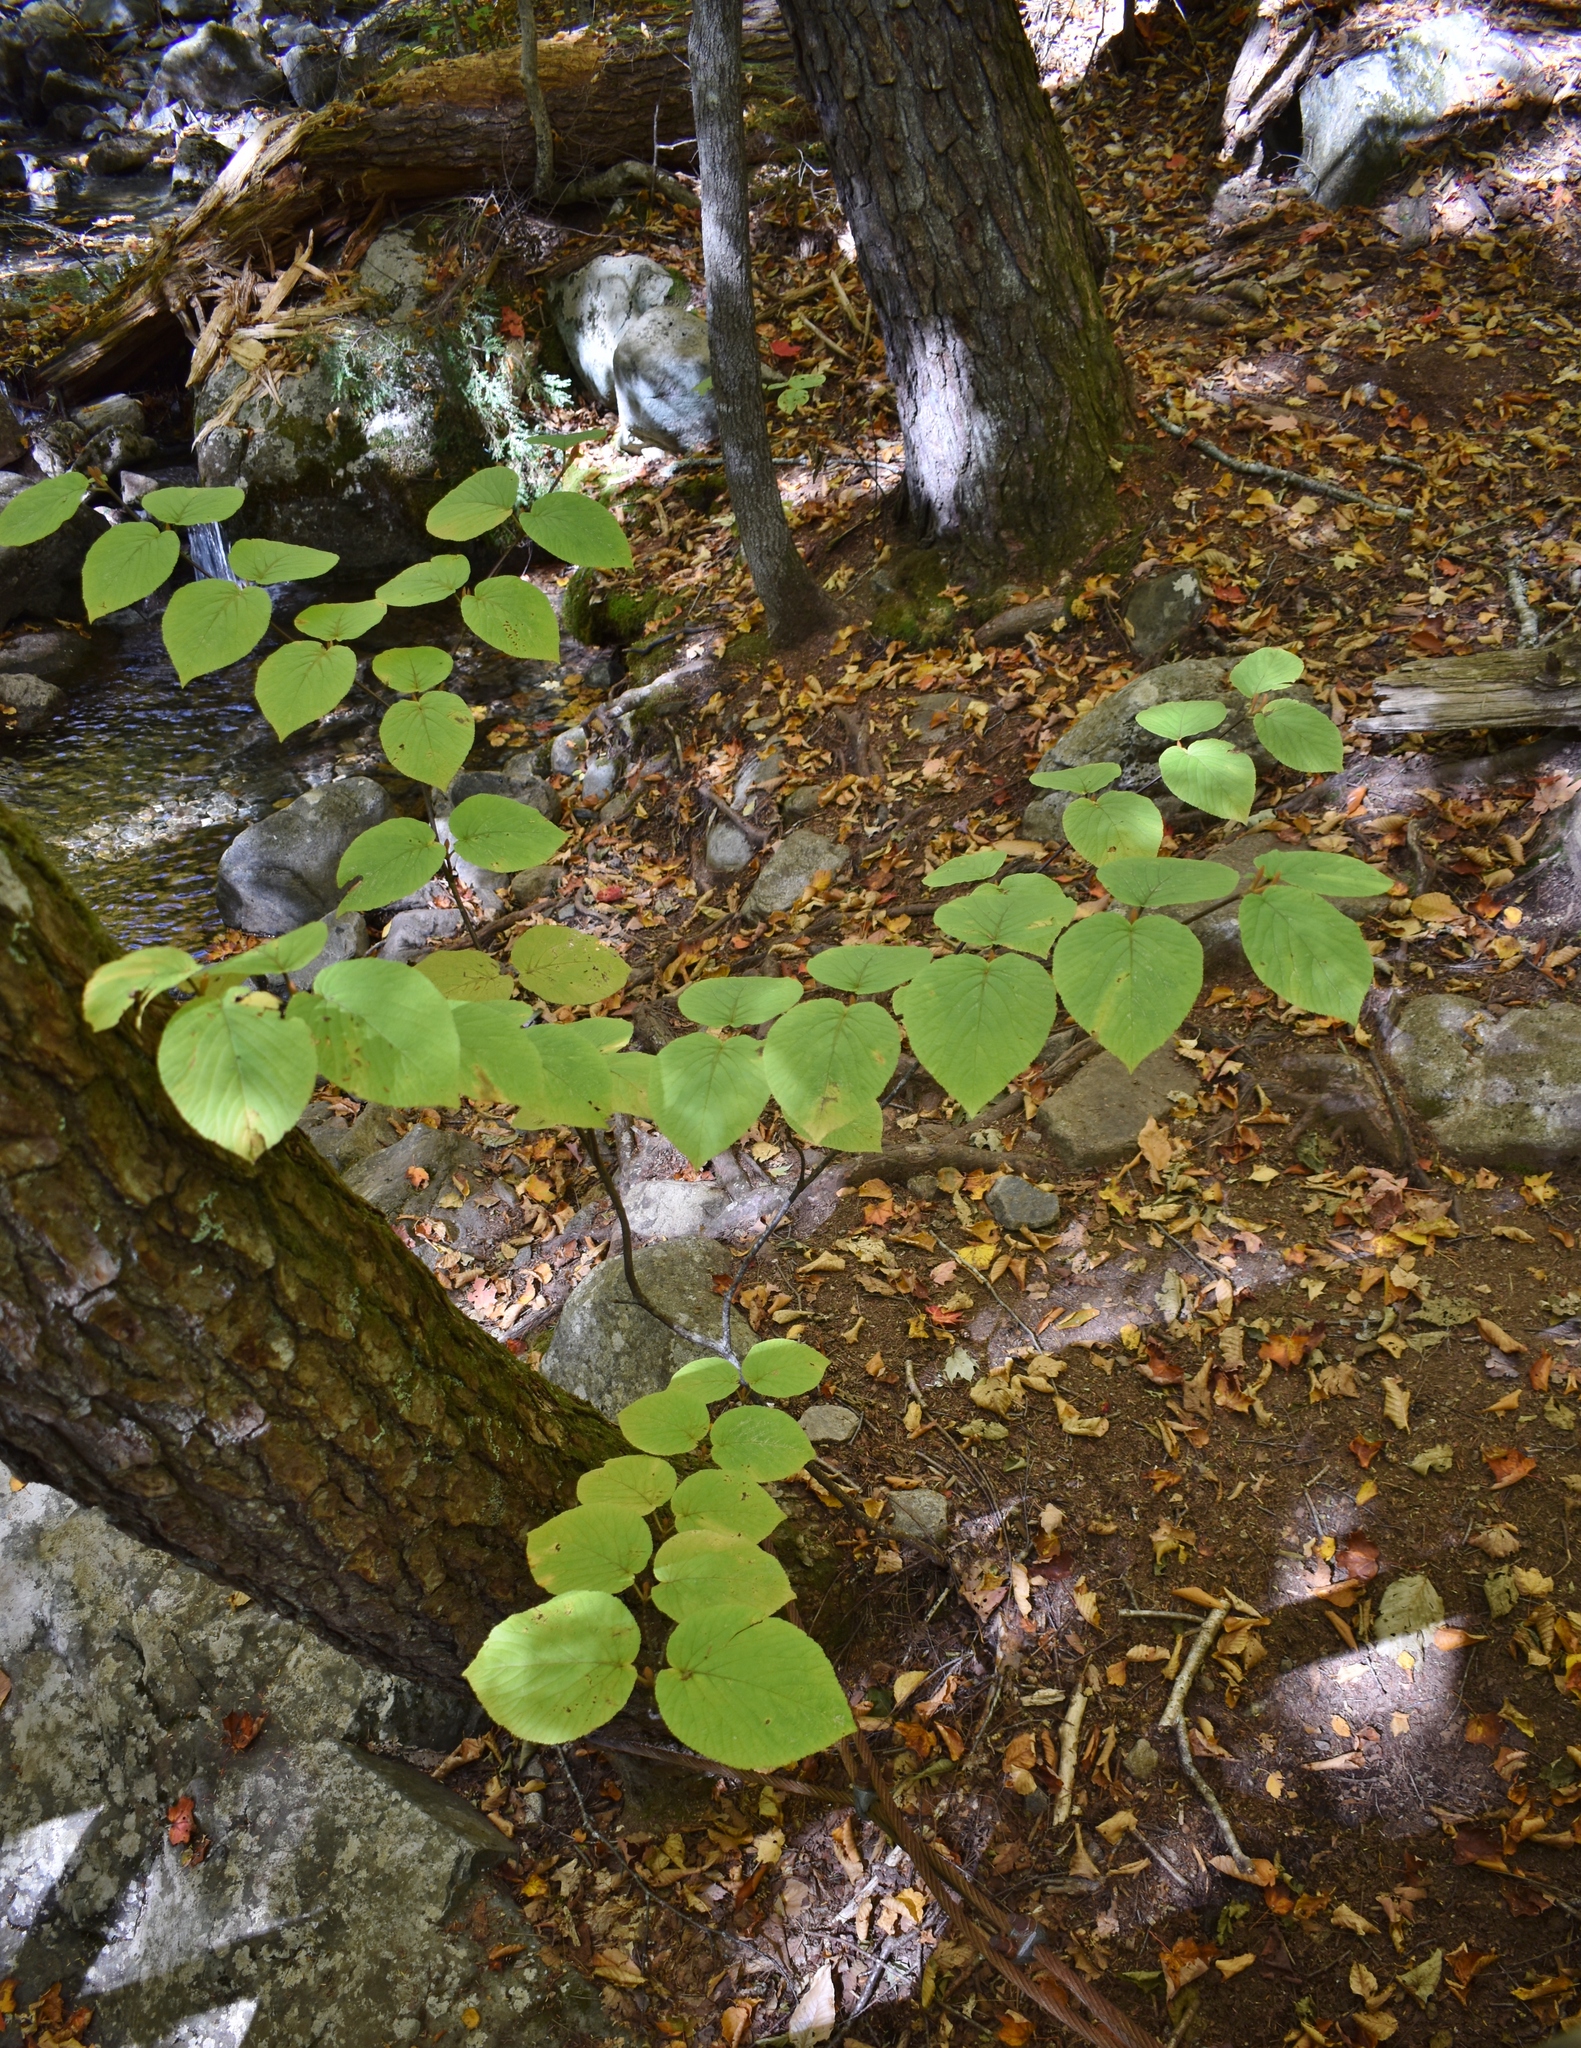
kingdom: Plantae
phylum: Tracheophyta
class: Magnoliopsida
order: Dipsacales
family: Viburnaceae
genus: Viburnum
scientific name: Viburnum lantanoides
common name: Hobblebush
